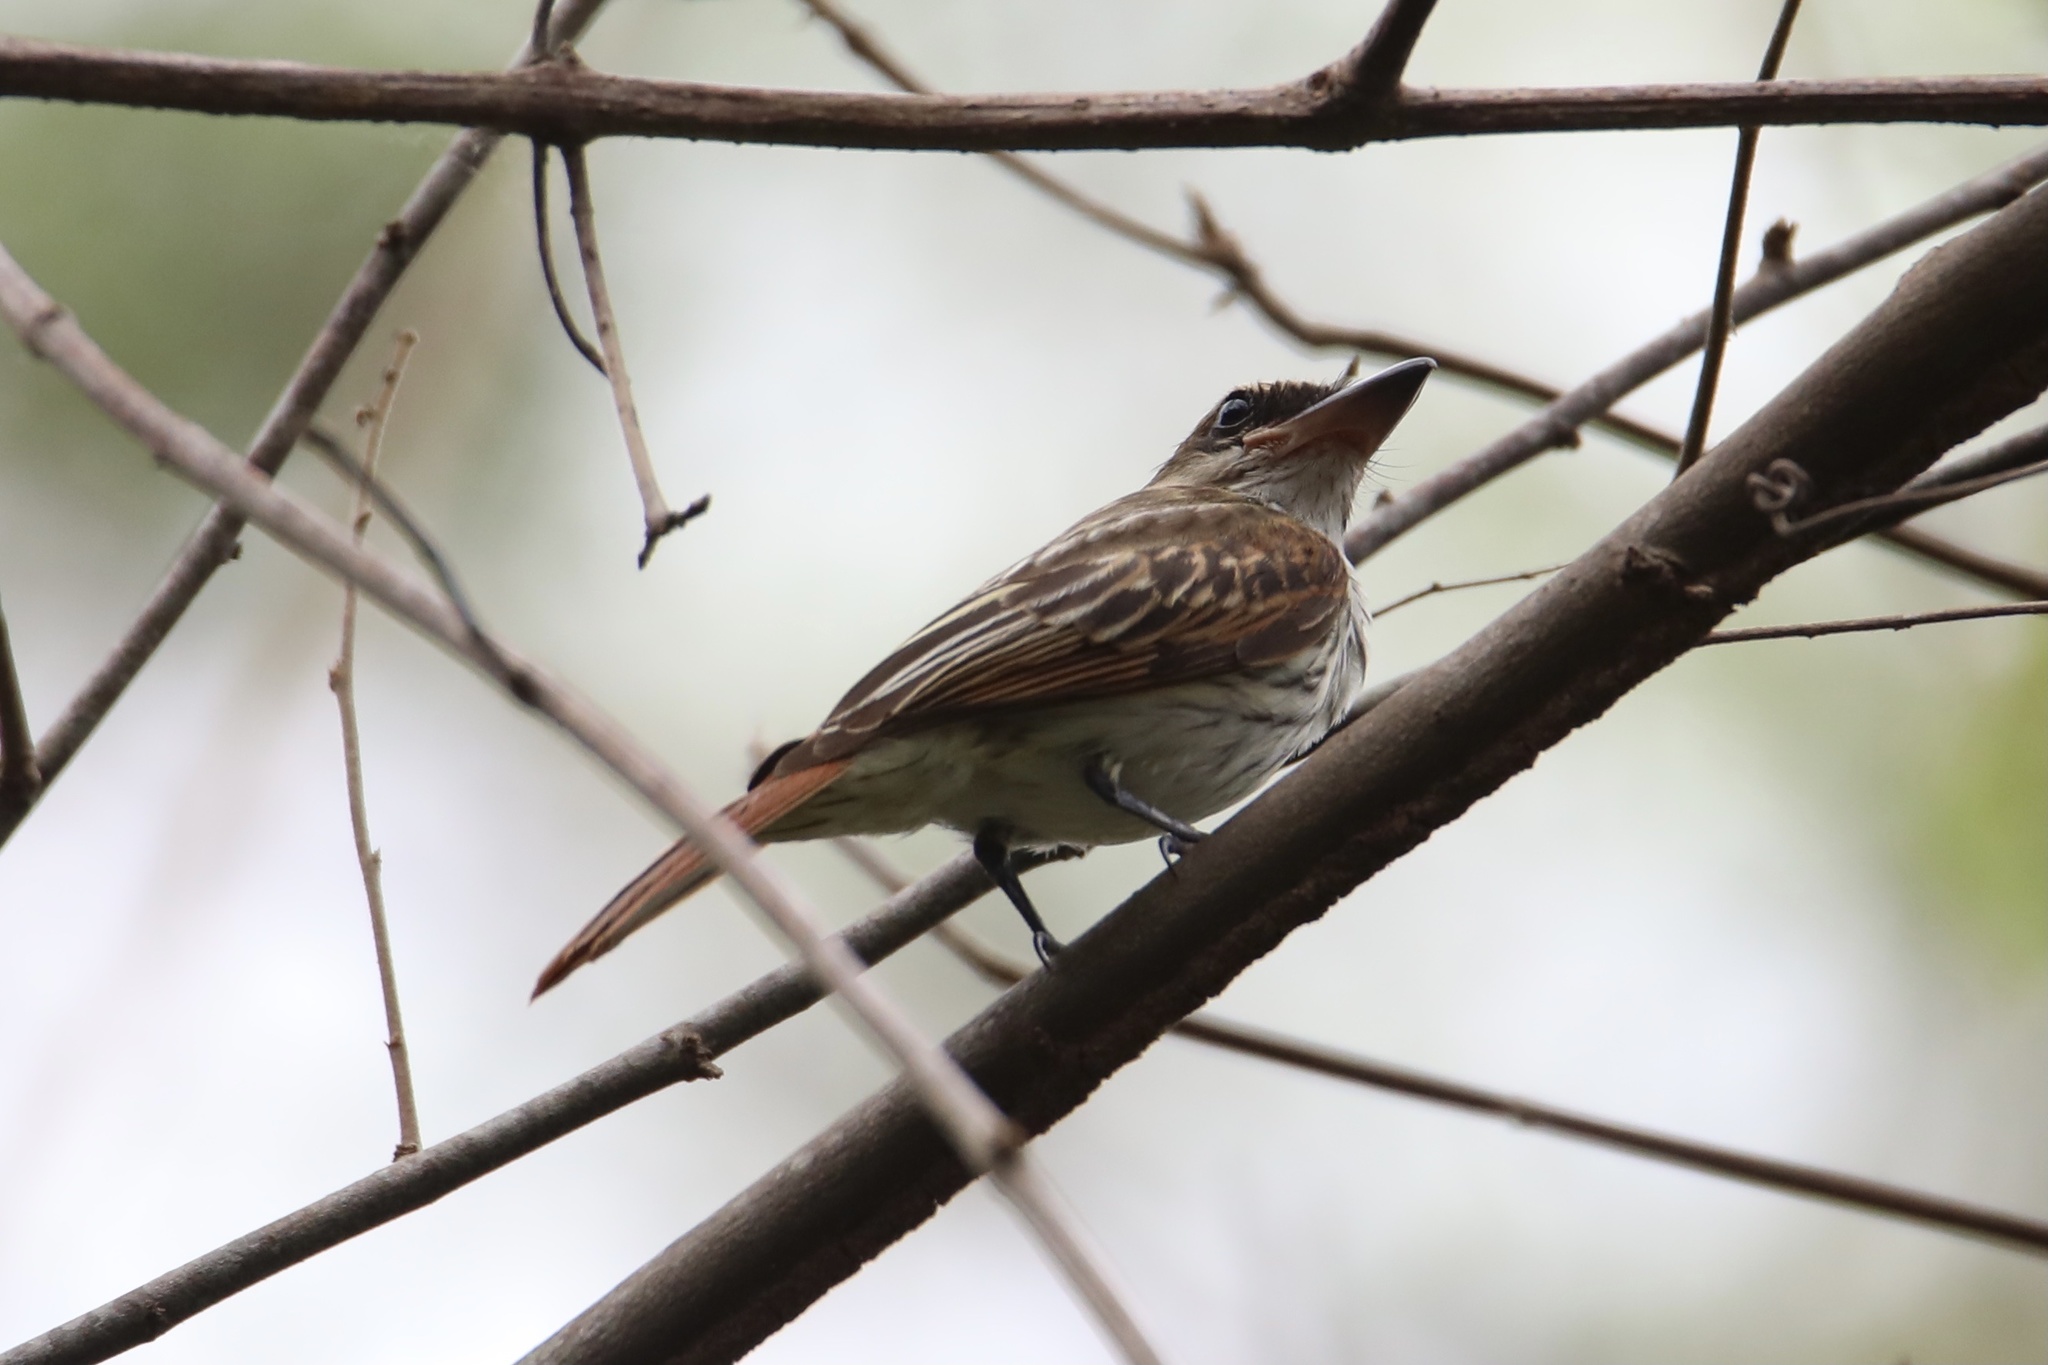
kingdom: Animalia
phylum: Chordata
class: Aves
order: Passeriformes
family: Tyrannidae
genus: Myiodynastes
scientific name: Myiodynastes maculatus
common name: Streaked flycatcher
